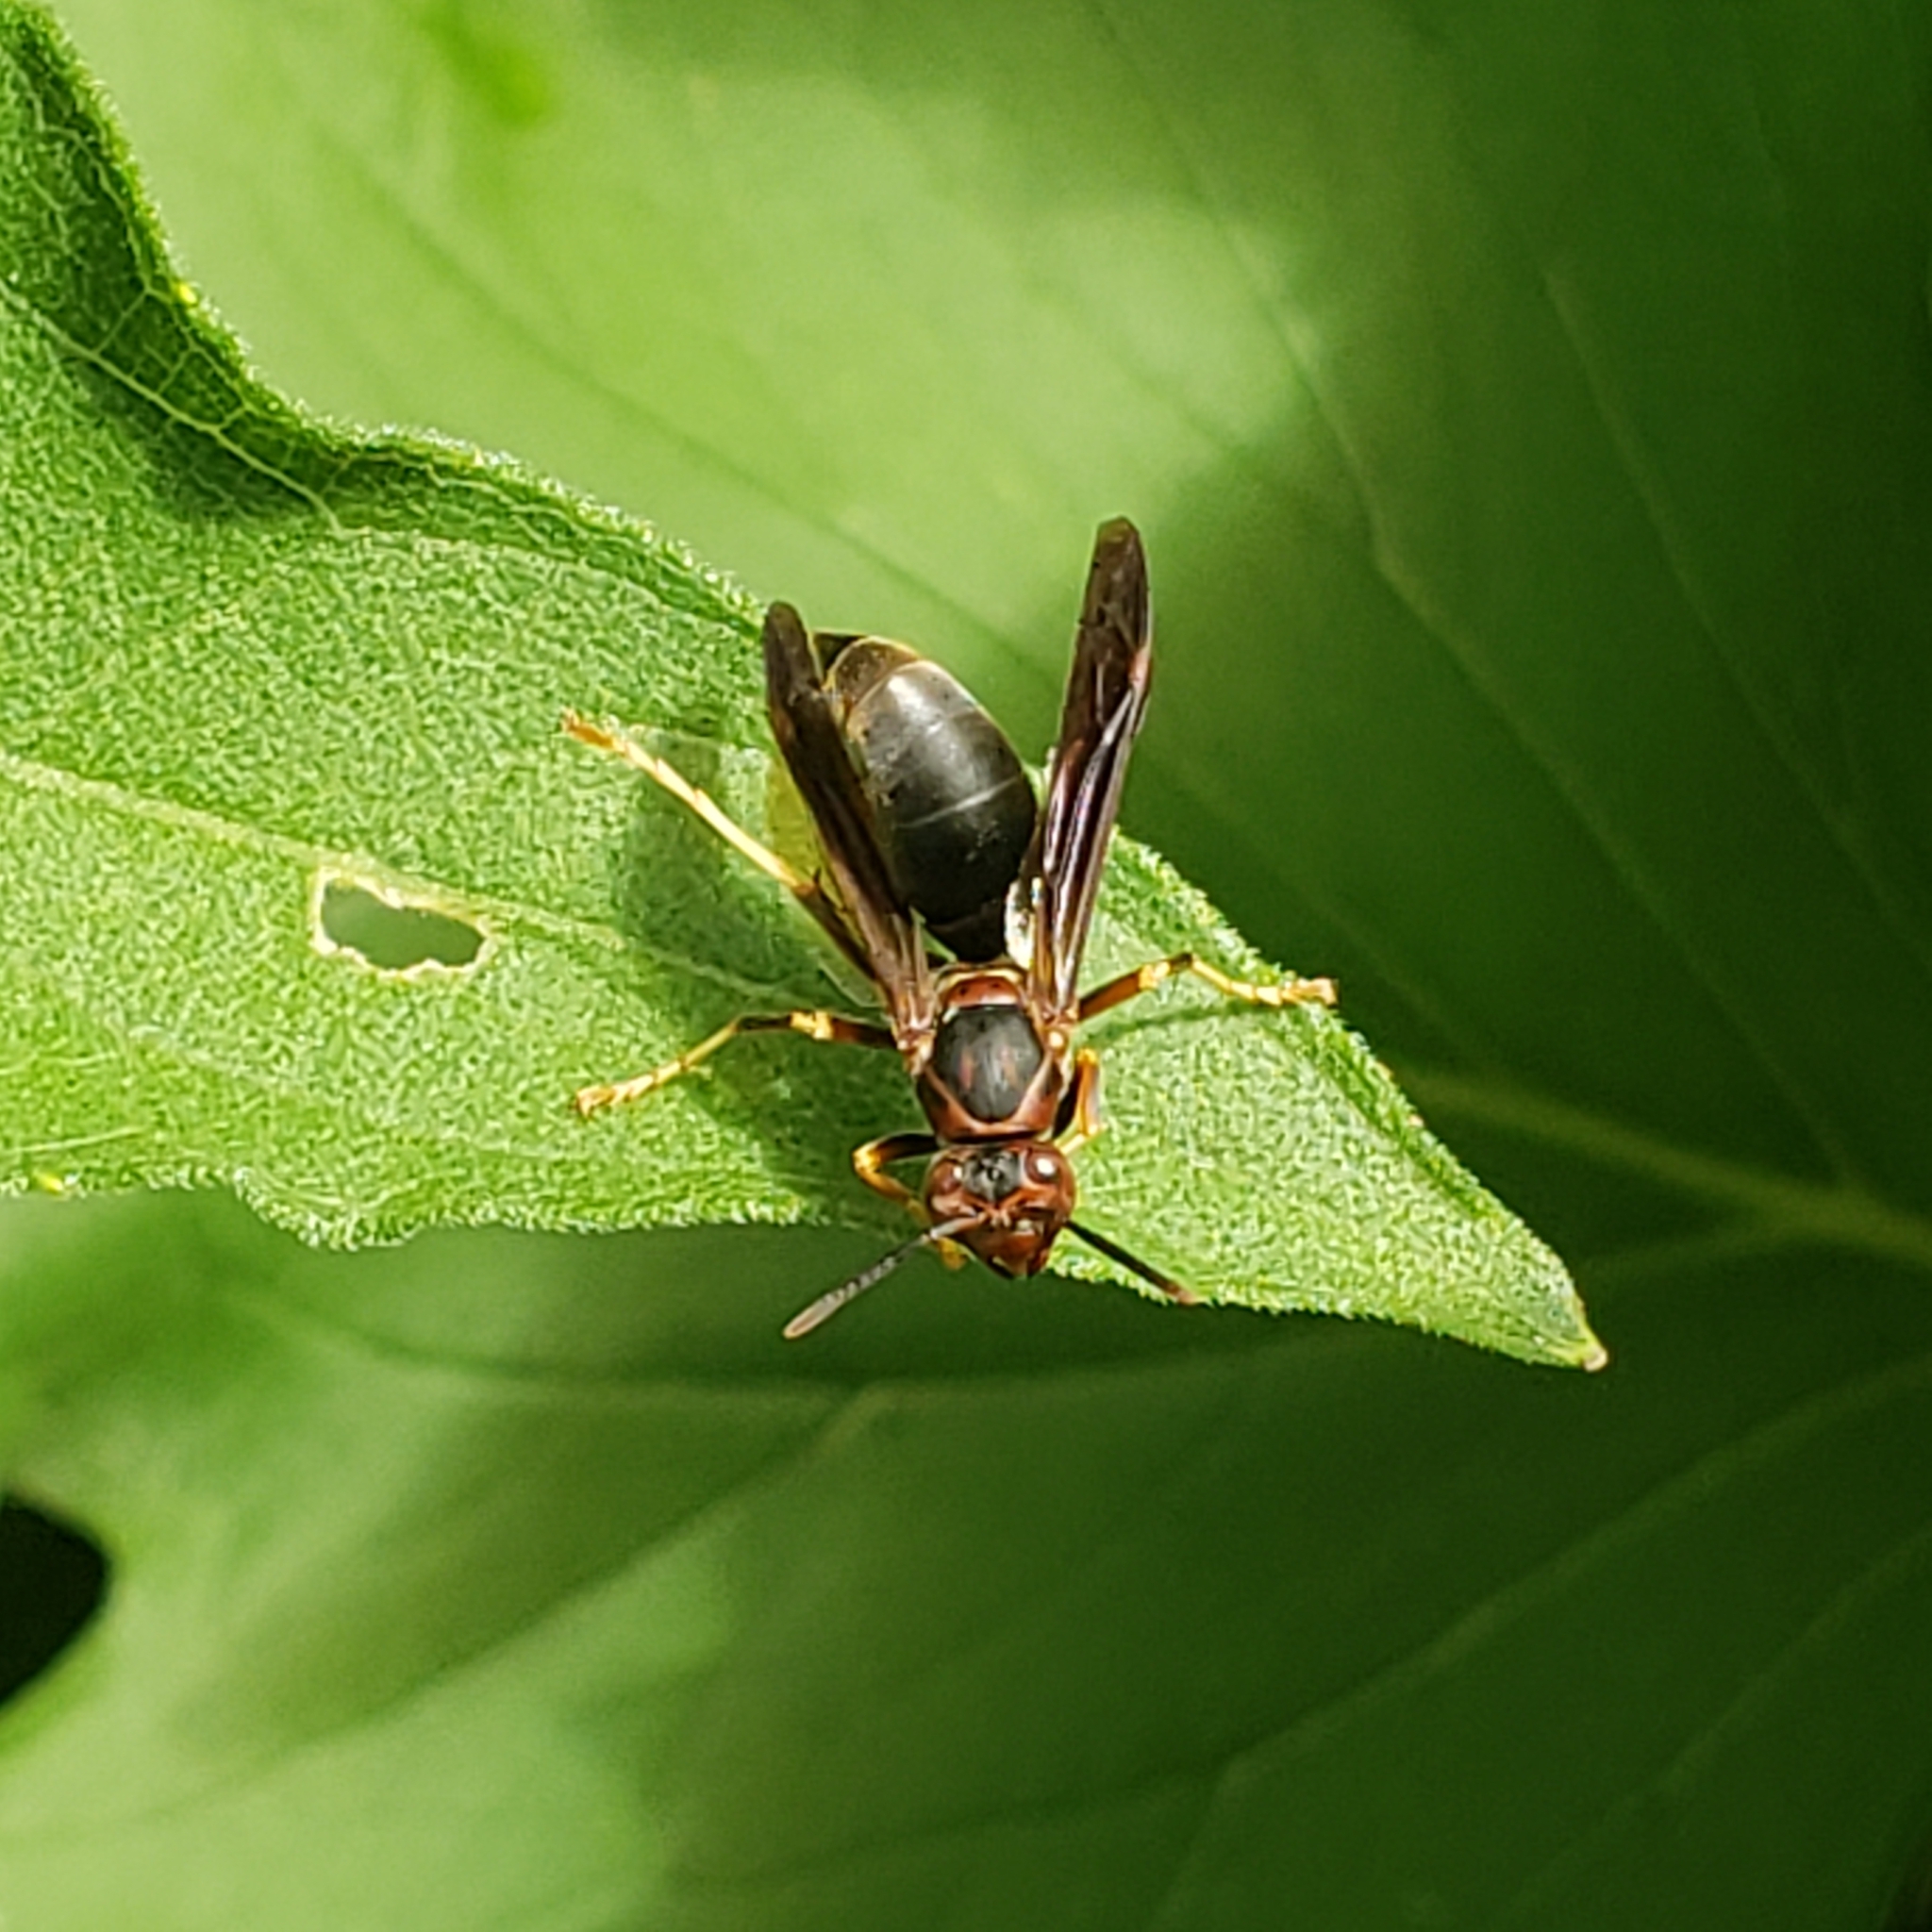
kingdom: Animalia
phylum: Arthropoda
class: Insecta
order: Hymenoptera
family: Eumenidae
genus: Polistes
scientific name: Polistes metricus
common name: Metric paper wasp
